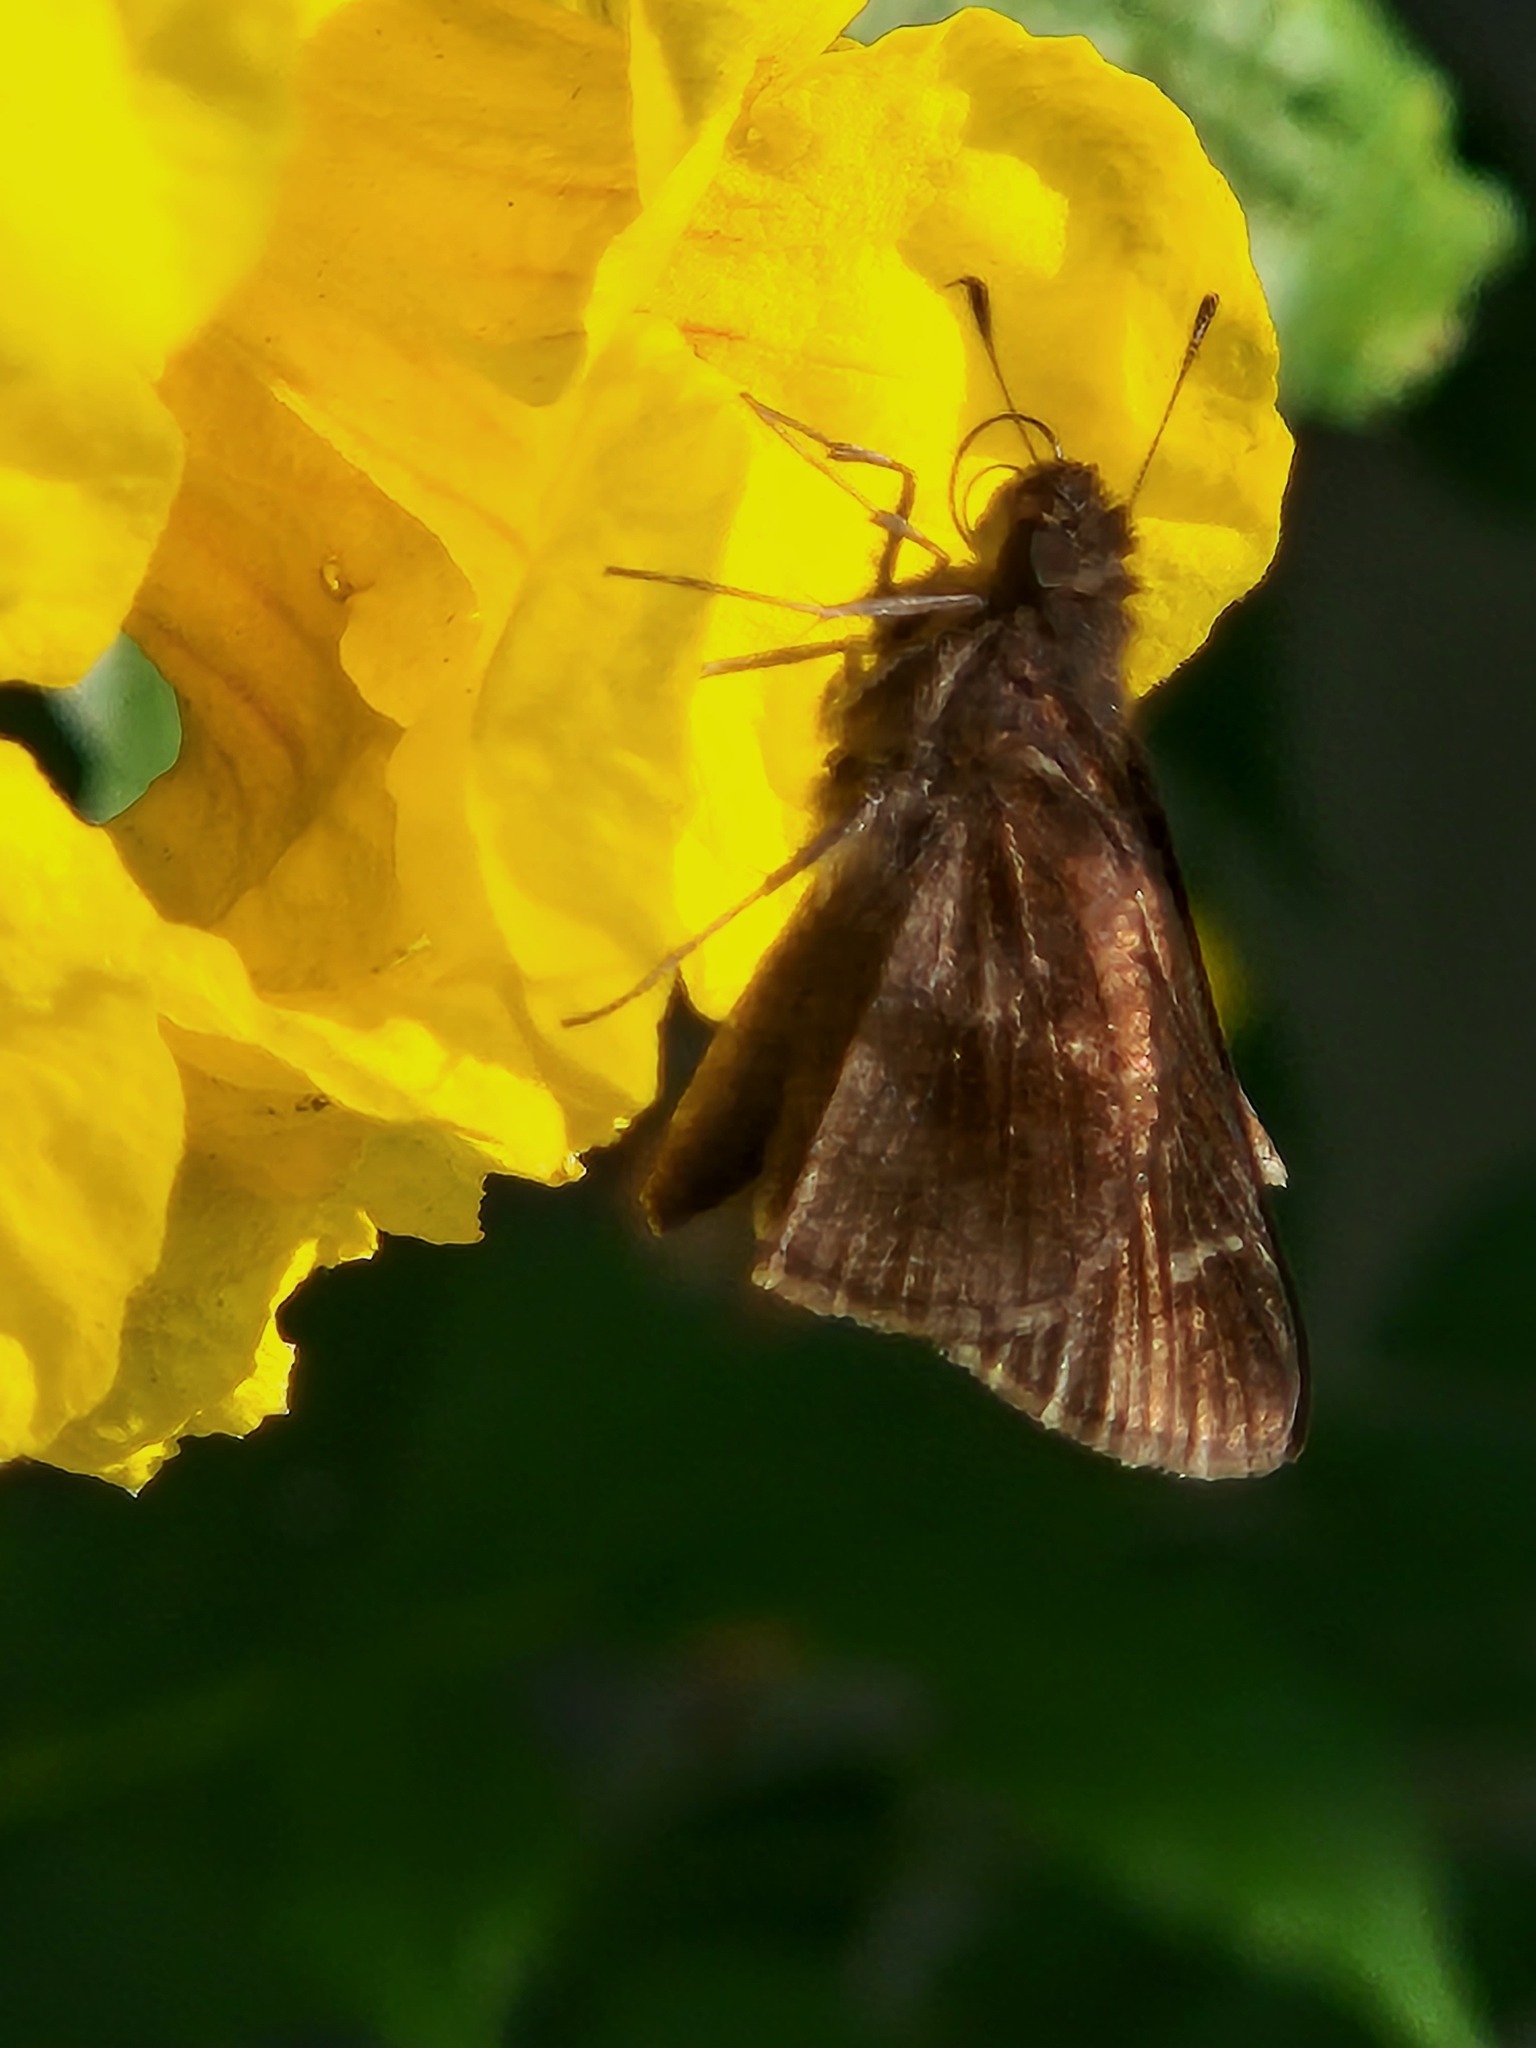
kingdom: Animalia
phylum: Arthropoda
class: Insecta
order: Lepidoptera
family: Hesperiidae
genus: Lerema
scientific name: Lerema accius
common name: Clouded skipper
